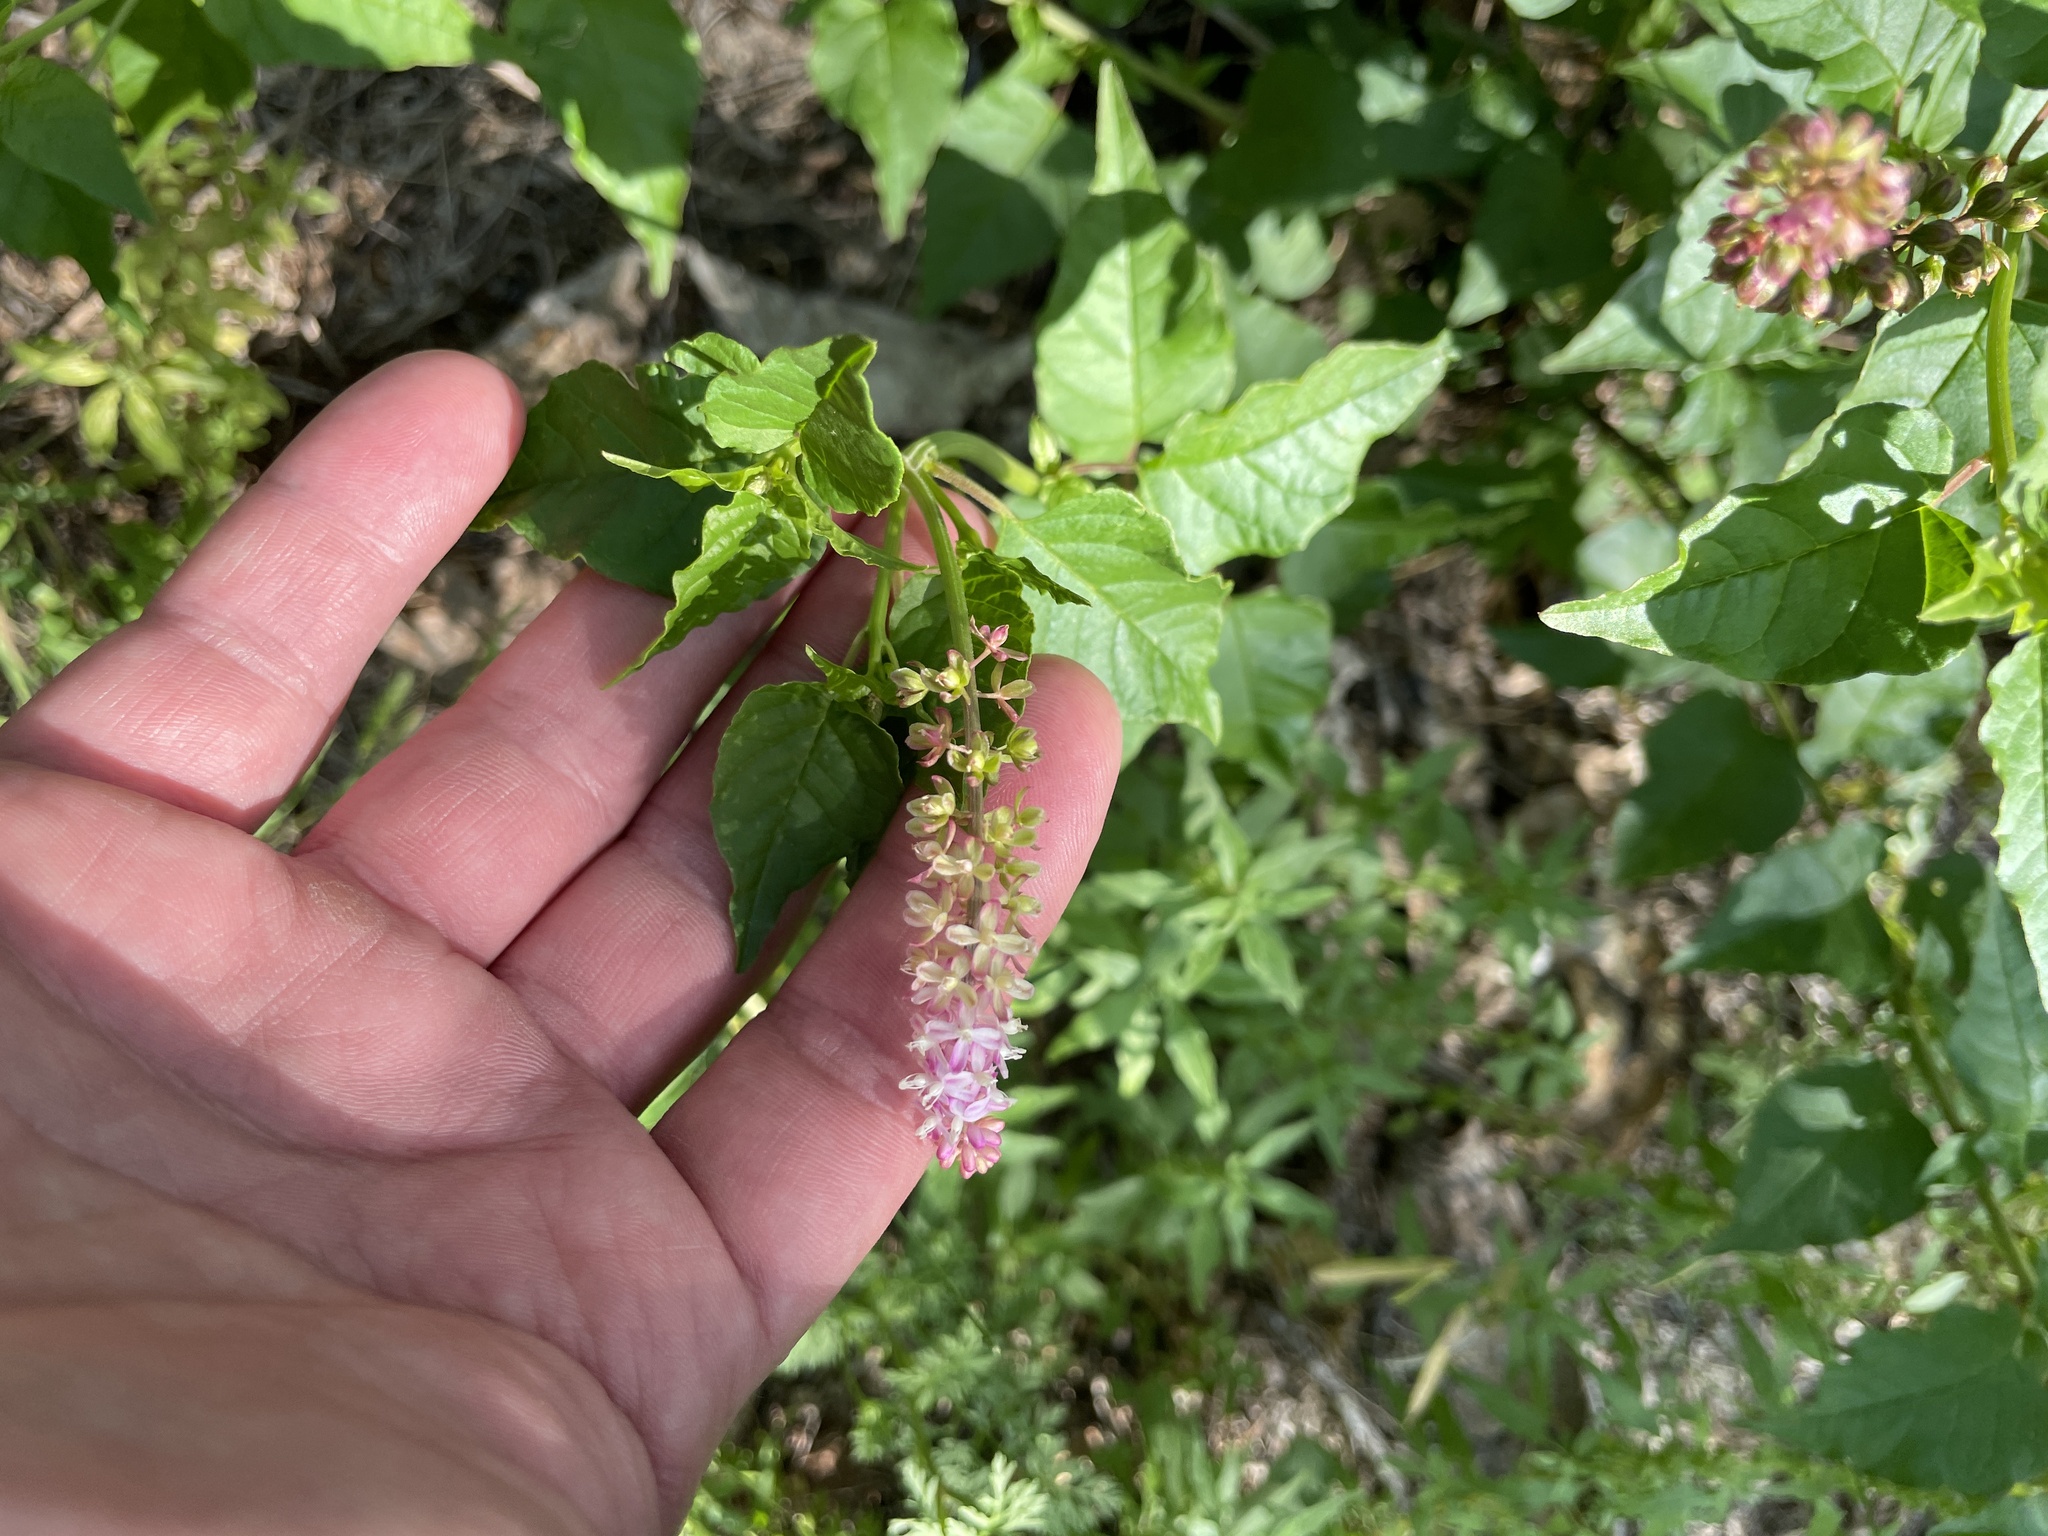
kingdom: Plantae
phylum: Tracheophyta
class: Magnoliopsida
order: Caryophyllales
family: Phytolaccaceae
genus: Rivina
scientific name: Rivina humilis
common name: Rougeplant
